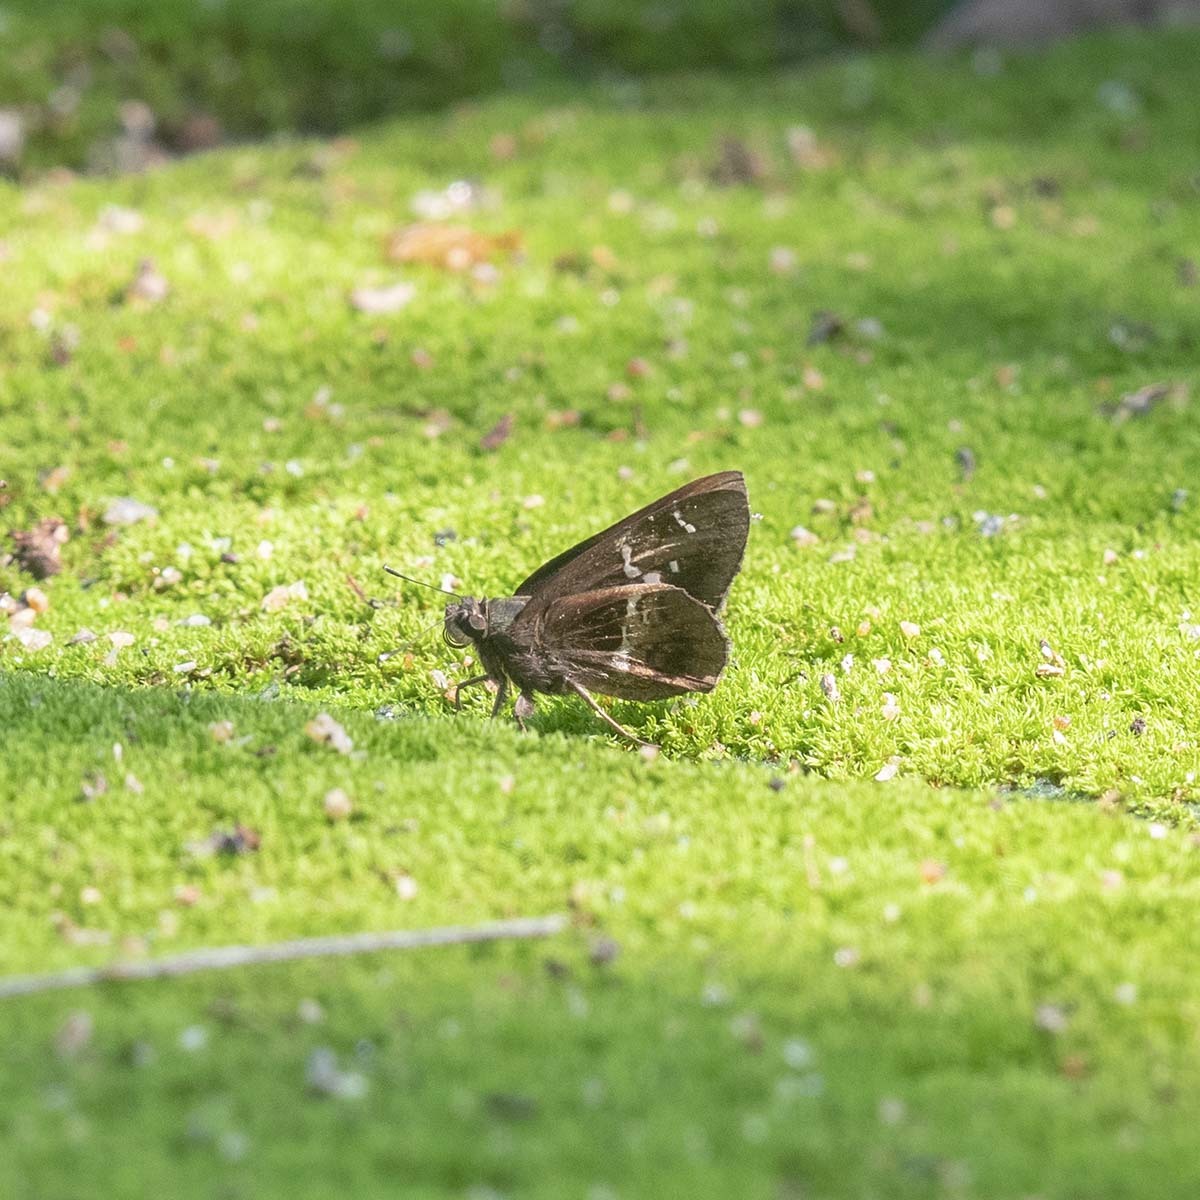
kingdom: Animalia
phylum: Arthropoda
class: Insecta
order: Lepidoptera
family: Hesperiidae
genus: Hyarotis
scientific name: Hyarotis adrastus
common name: Tree flitter
